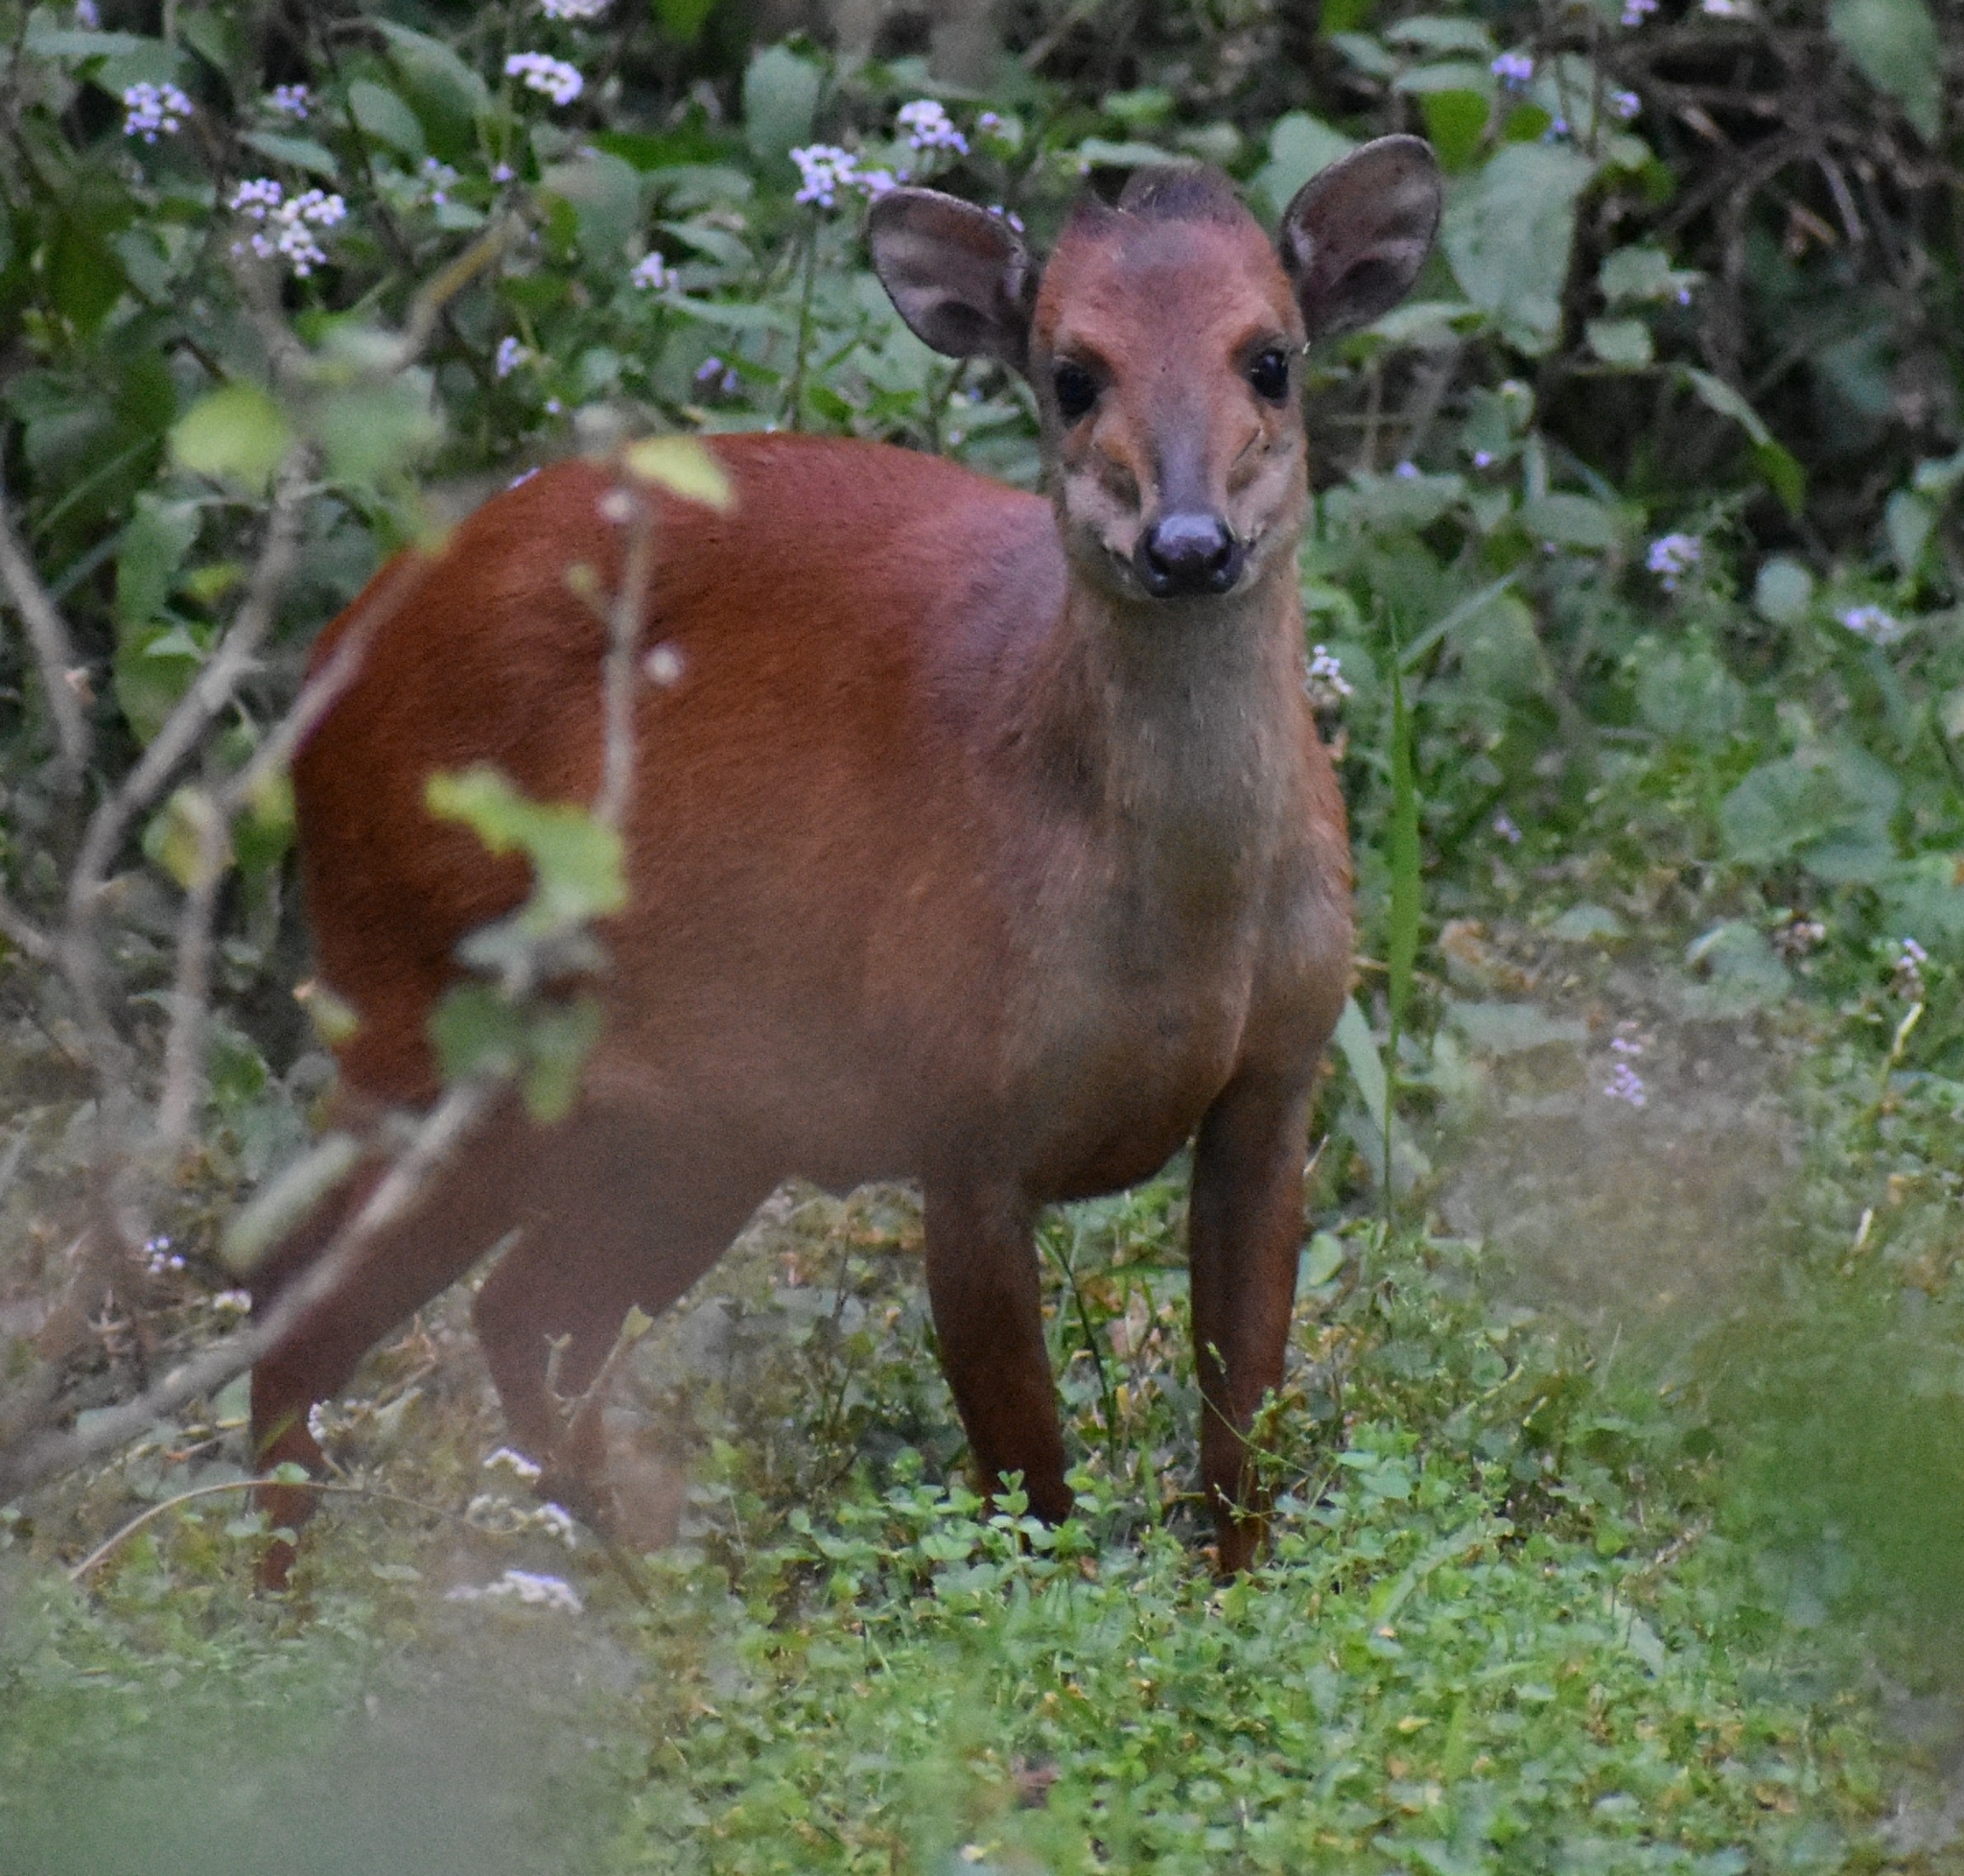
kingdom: Animalia
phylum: Chordata
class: Mammalia
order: Artiodactyla
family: Bovidae
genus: Cephalophus
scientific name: Cephalophus natalensis
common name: Red duiker
